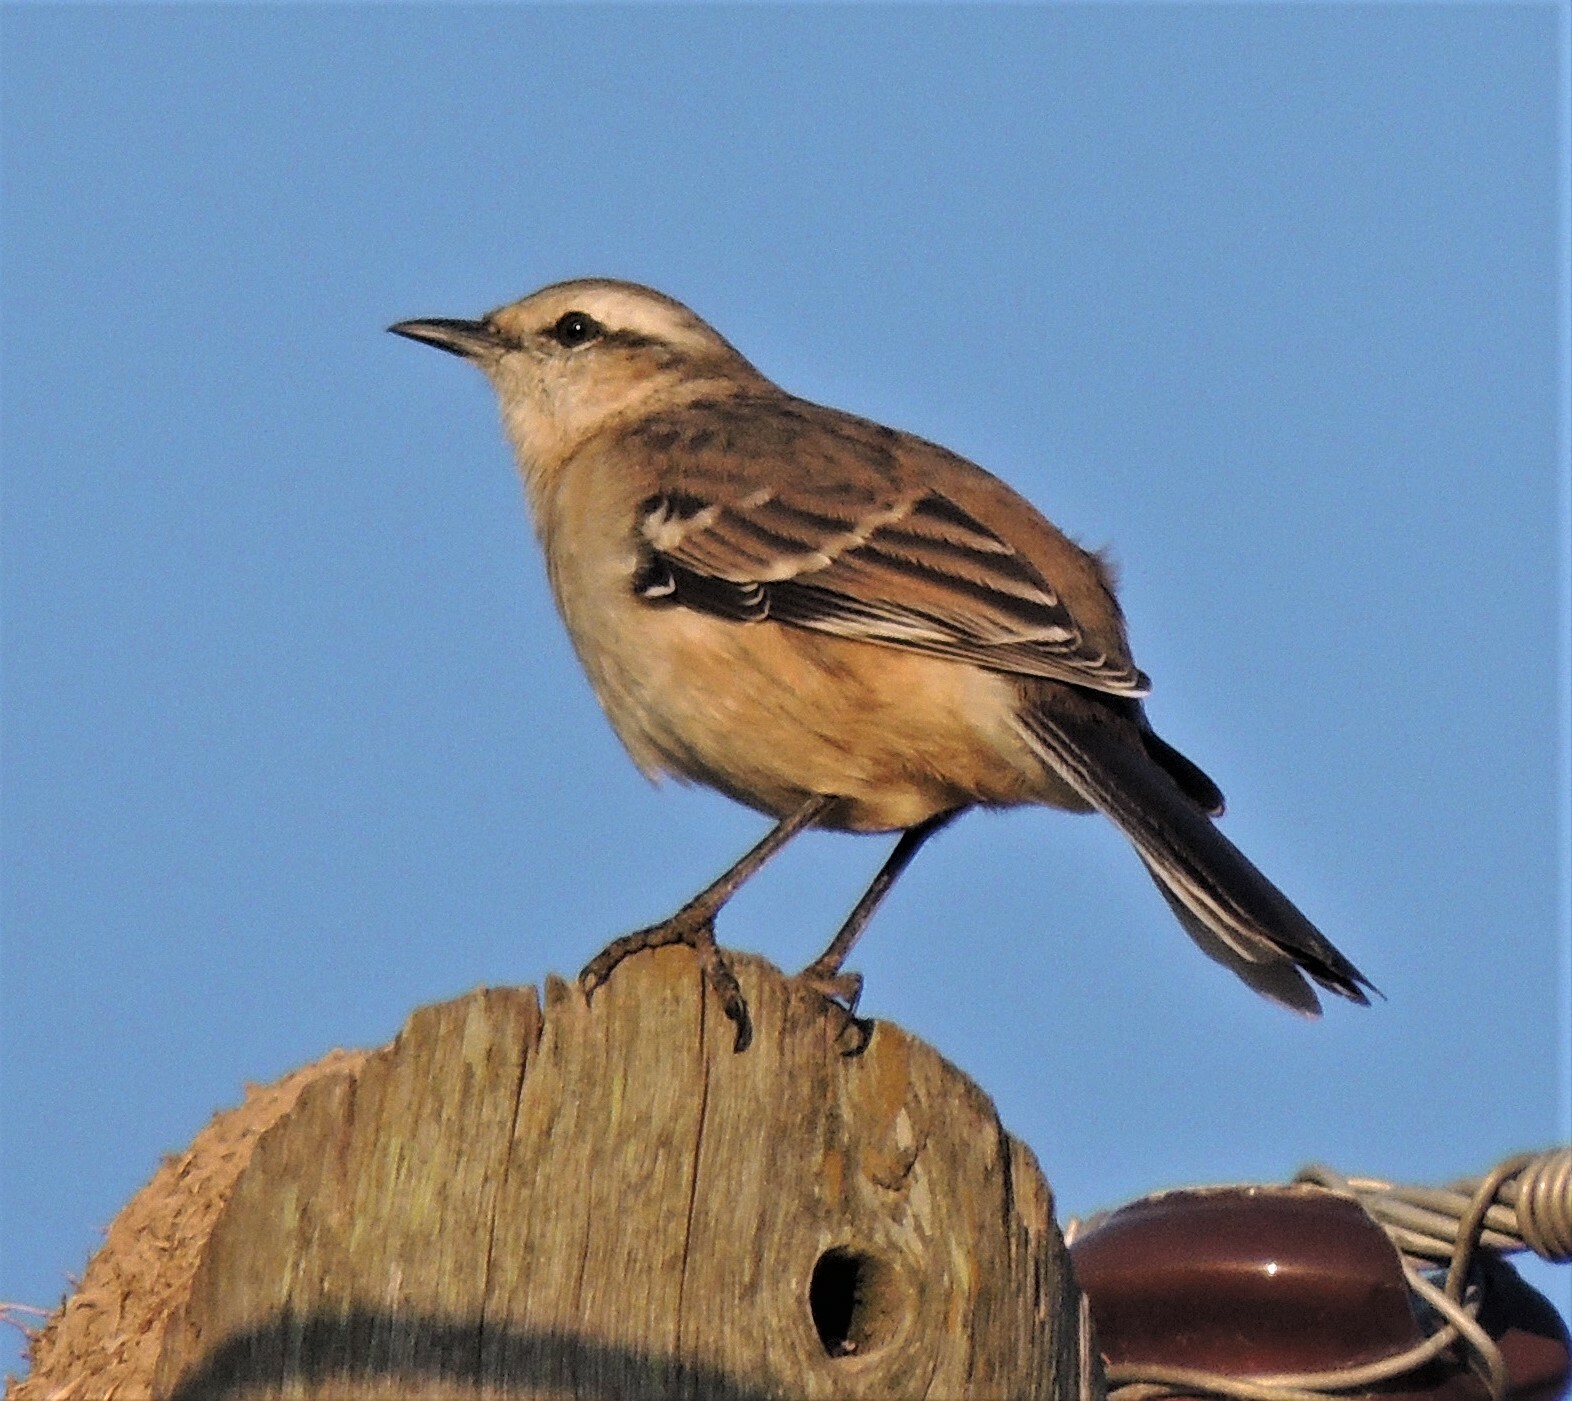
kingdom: Animalia
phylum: Chordata
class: Aves
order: Passeriformes
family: Mimidae
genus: Mimus
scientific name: Mimus saturninus
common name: Chalk-browed mockingbird
